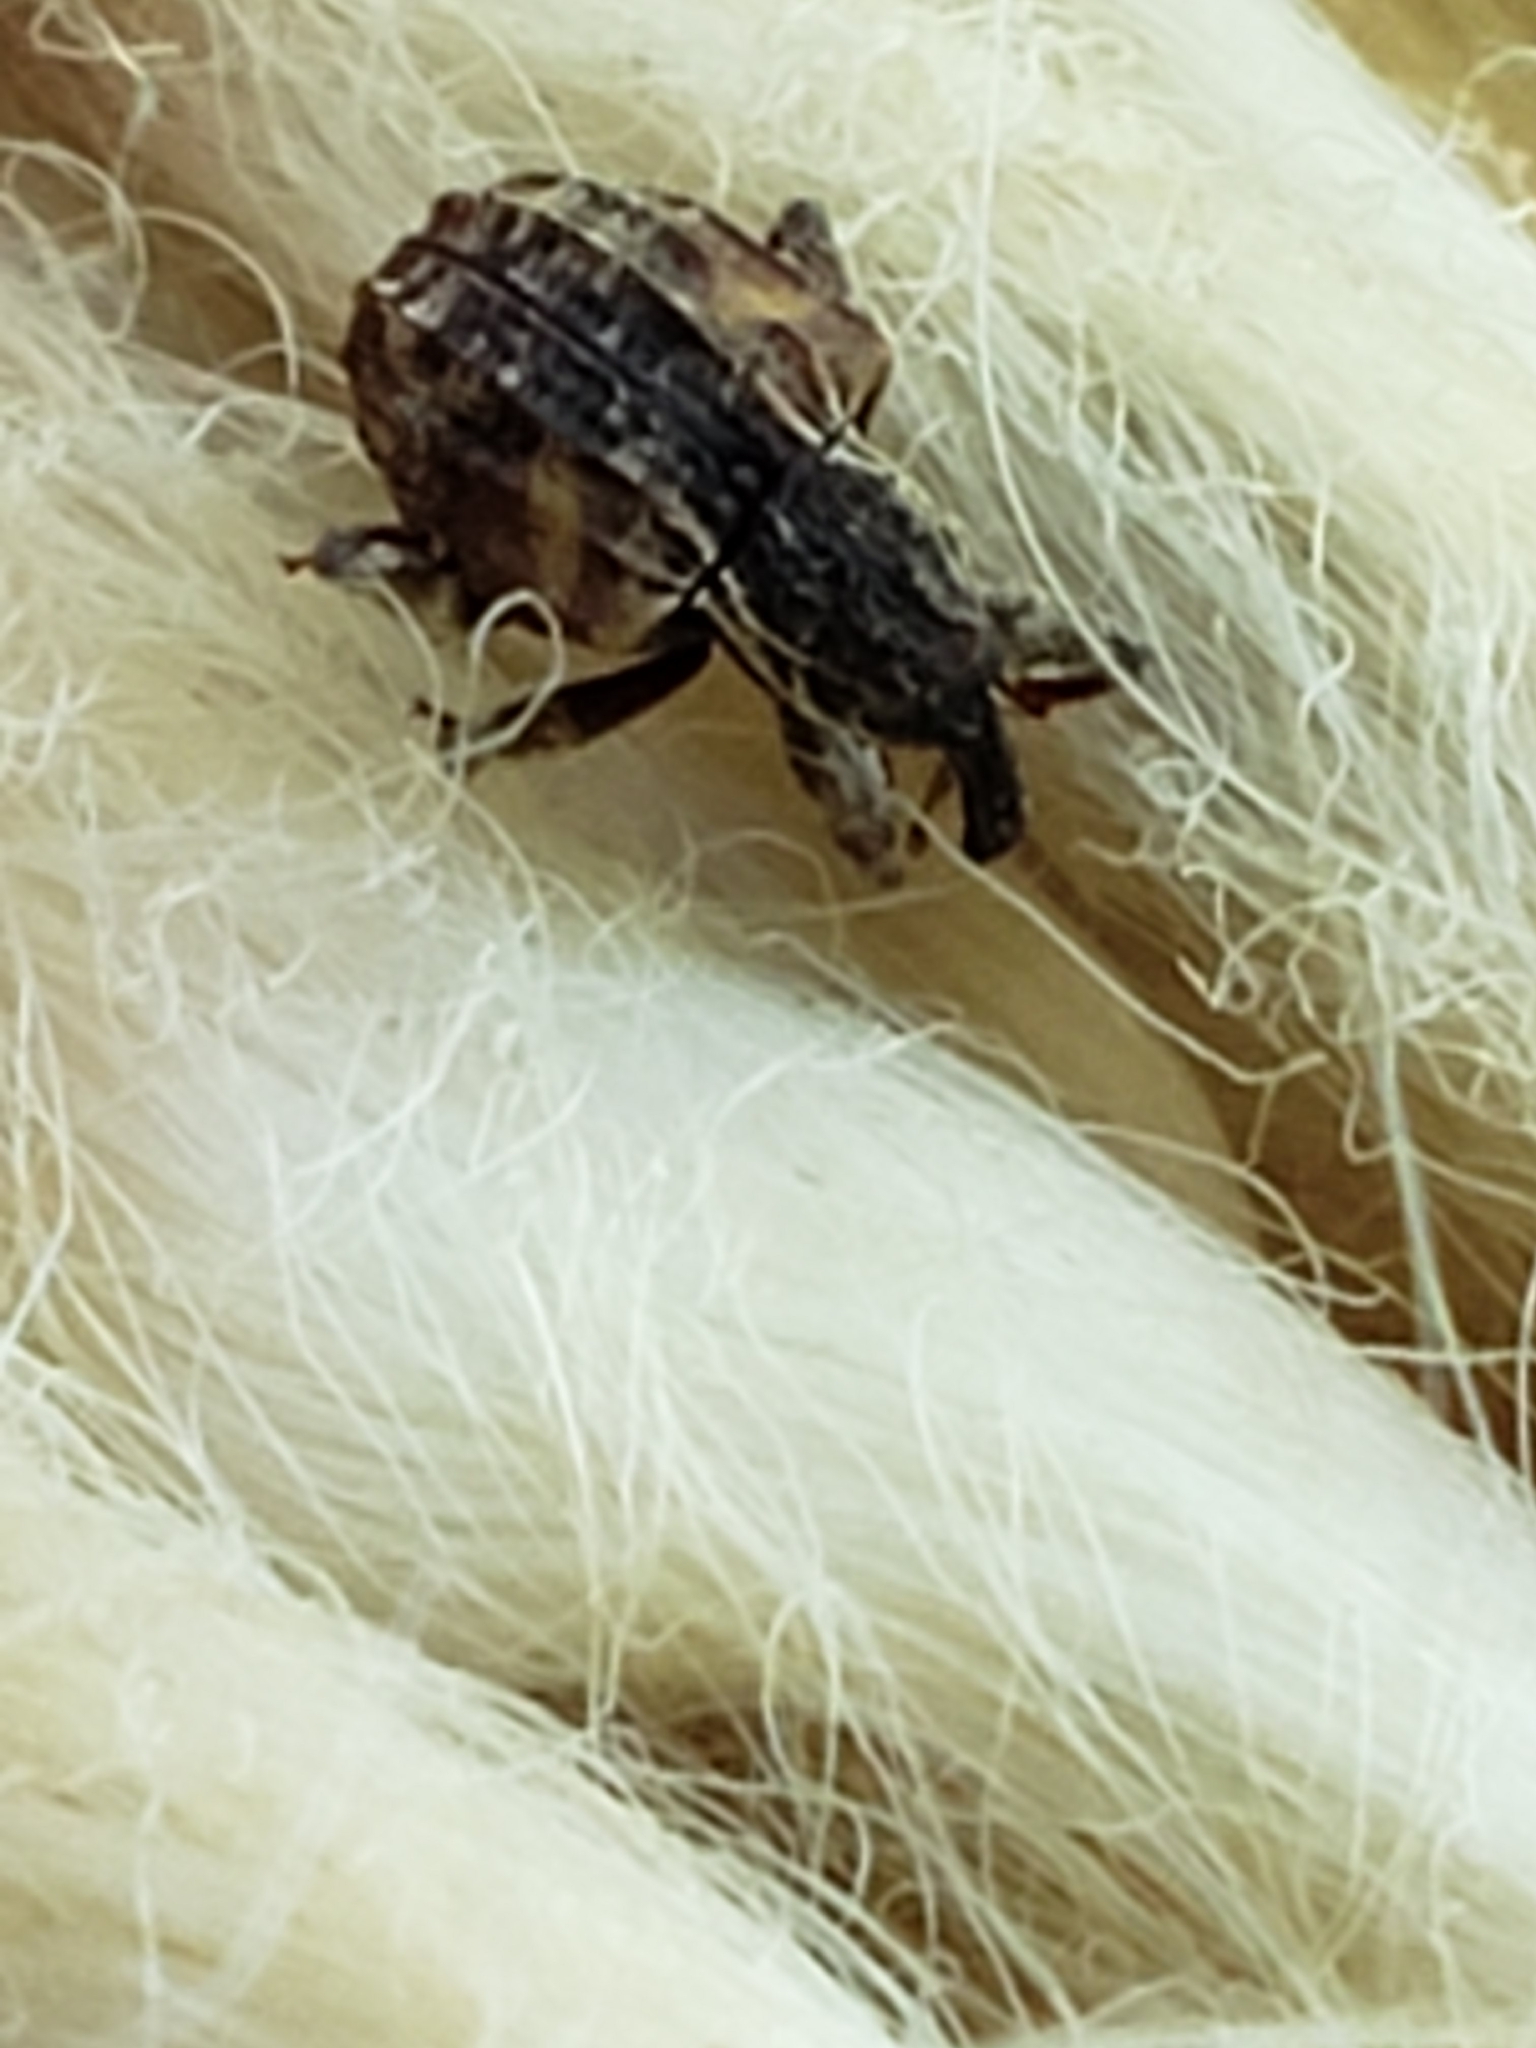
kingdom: Animalia
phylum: Arthropoda
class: Insecta
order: Coleoptera
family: Curculionidae
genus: Conotrachelus
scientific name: Conotrachelus anaglypticus
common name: Cambium curculio
